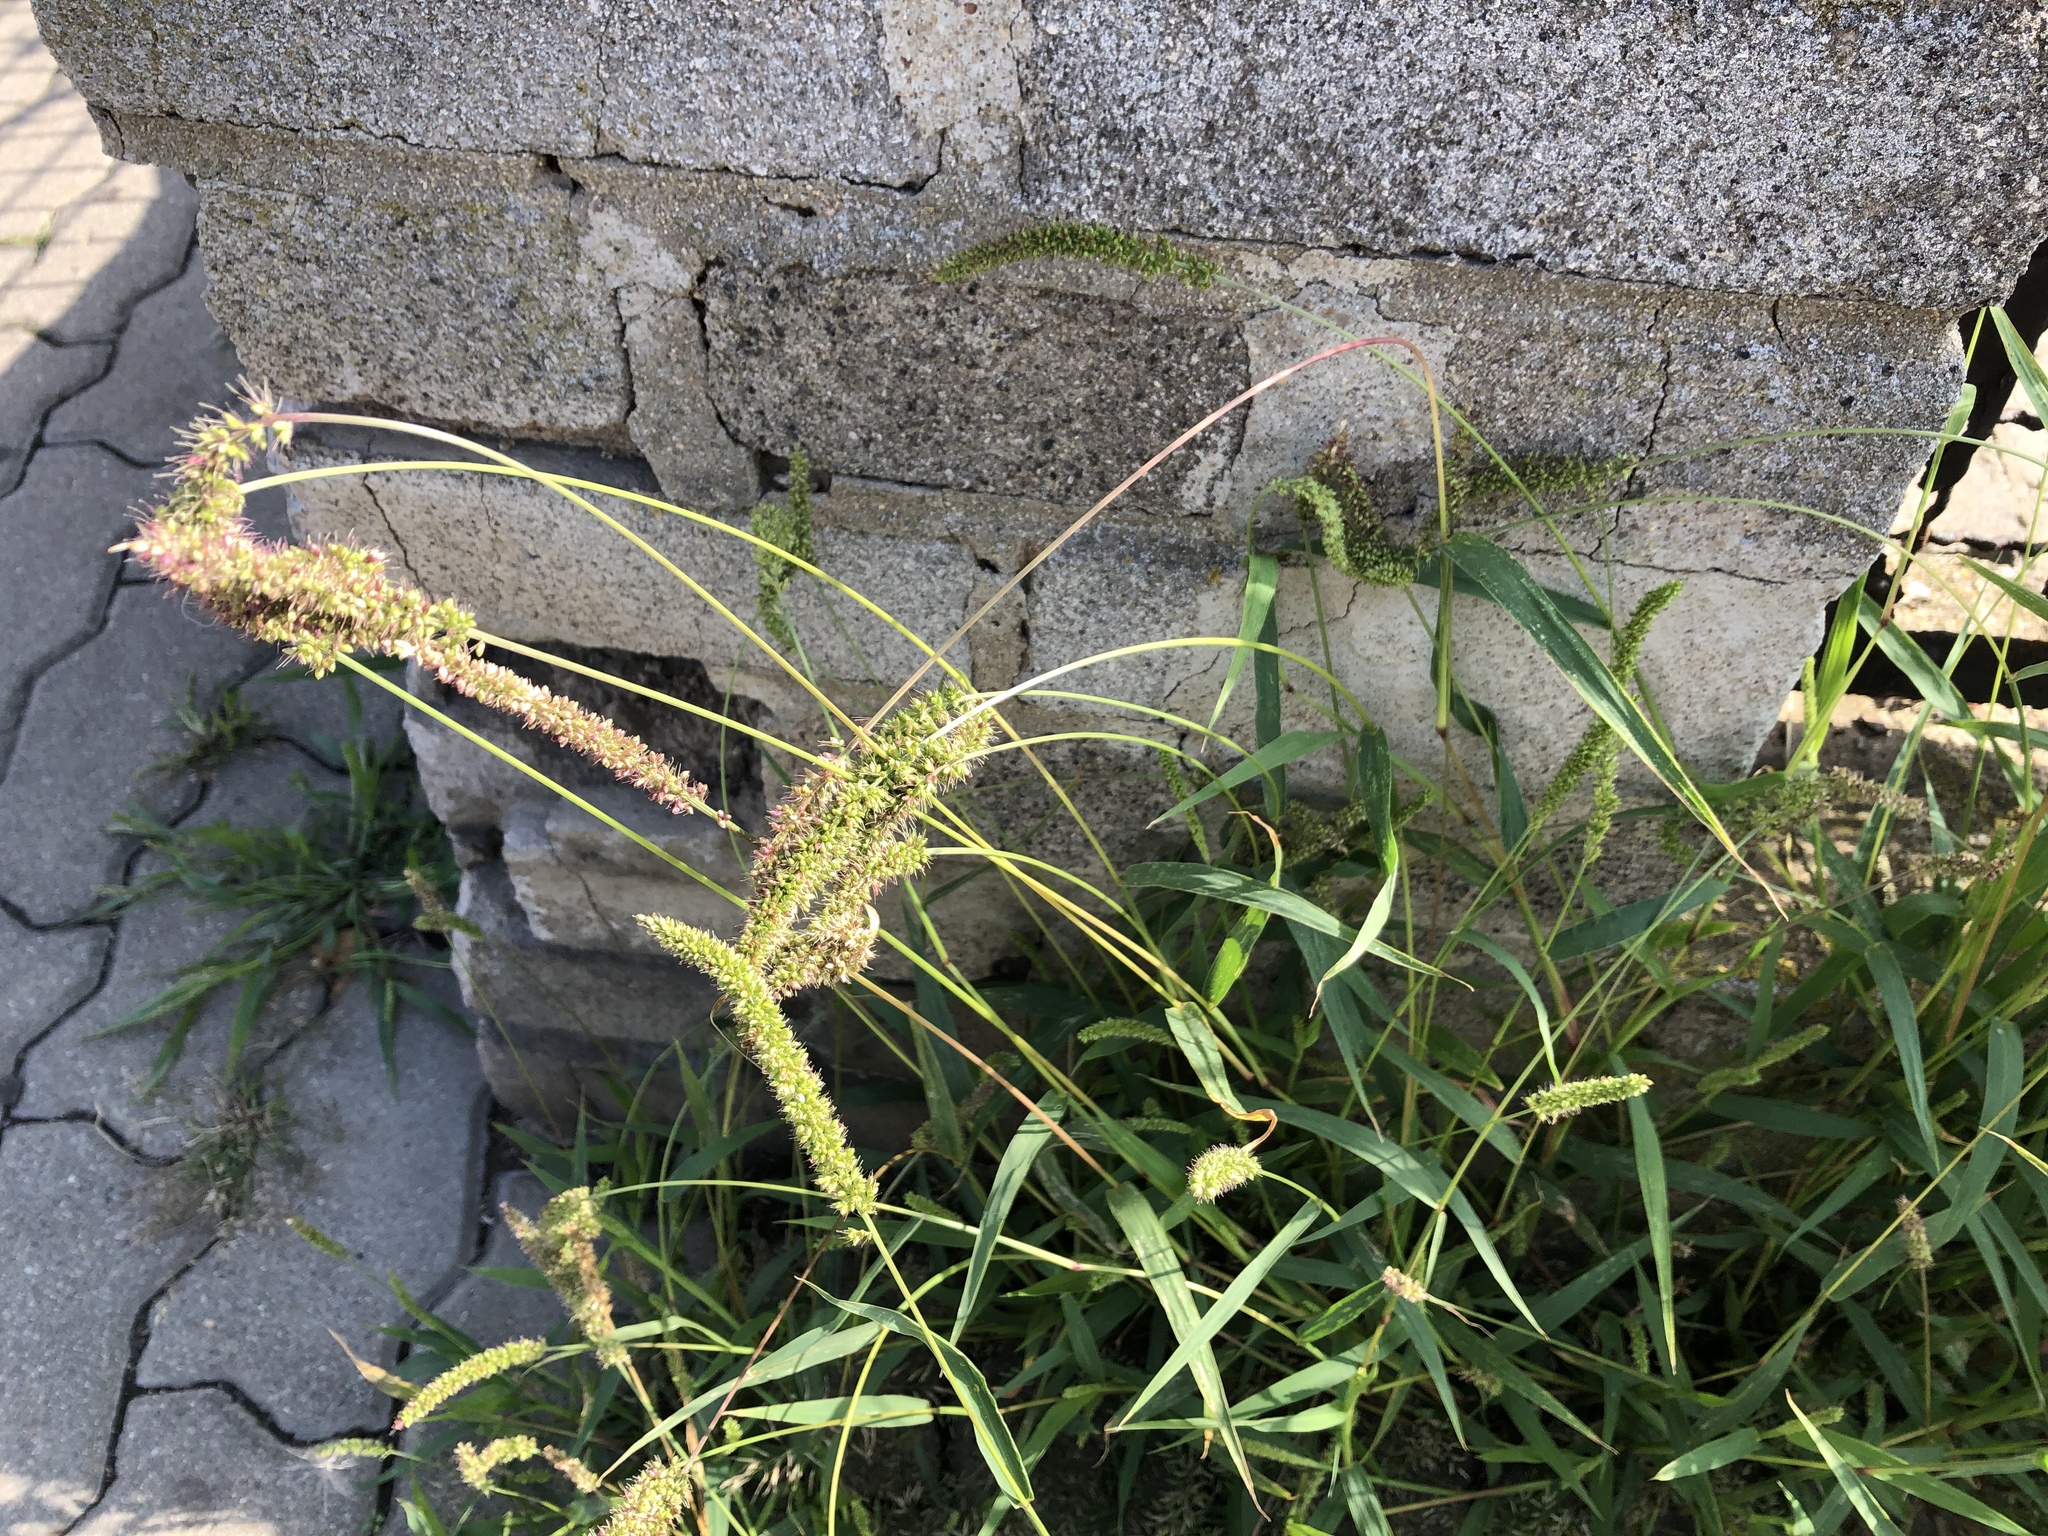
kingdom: Plantae
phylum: Tracheophyta
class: Liliopsida
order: Poales
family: Poaceae
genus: Setaria
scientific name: Setaria verticillata
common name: Hooked bristlegrass
